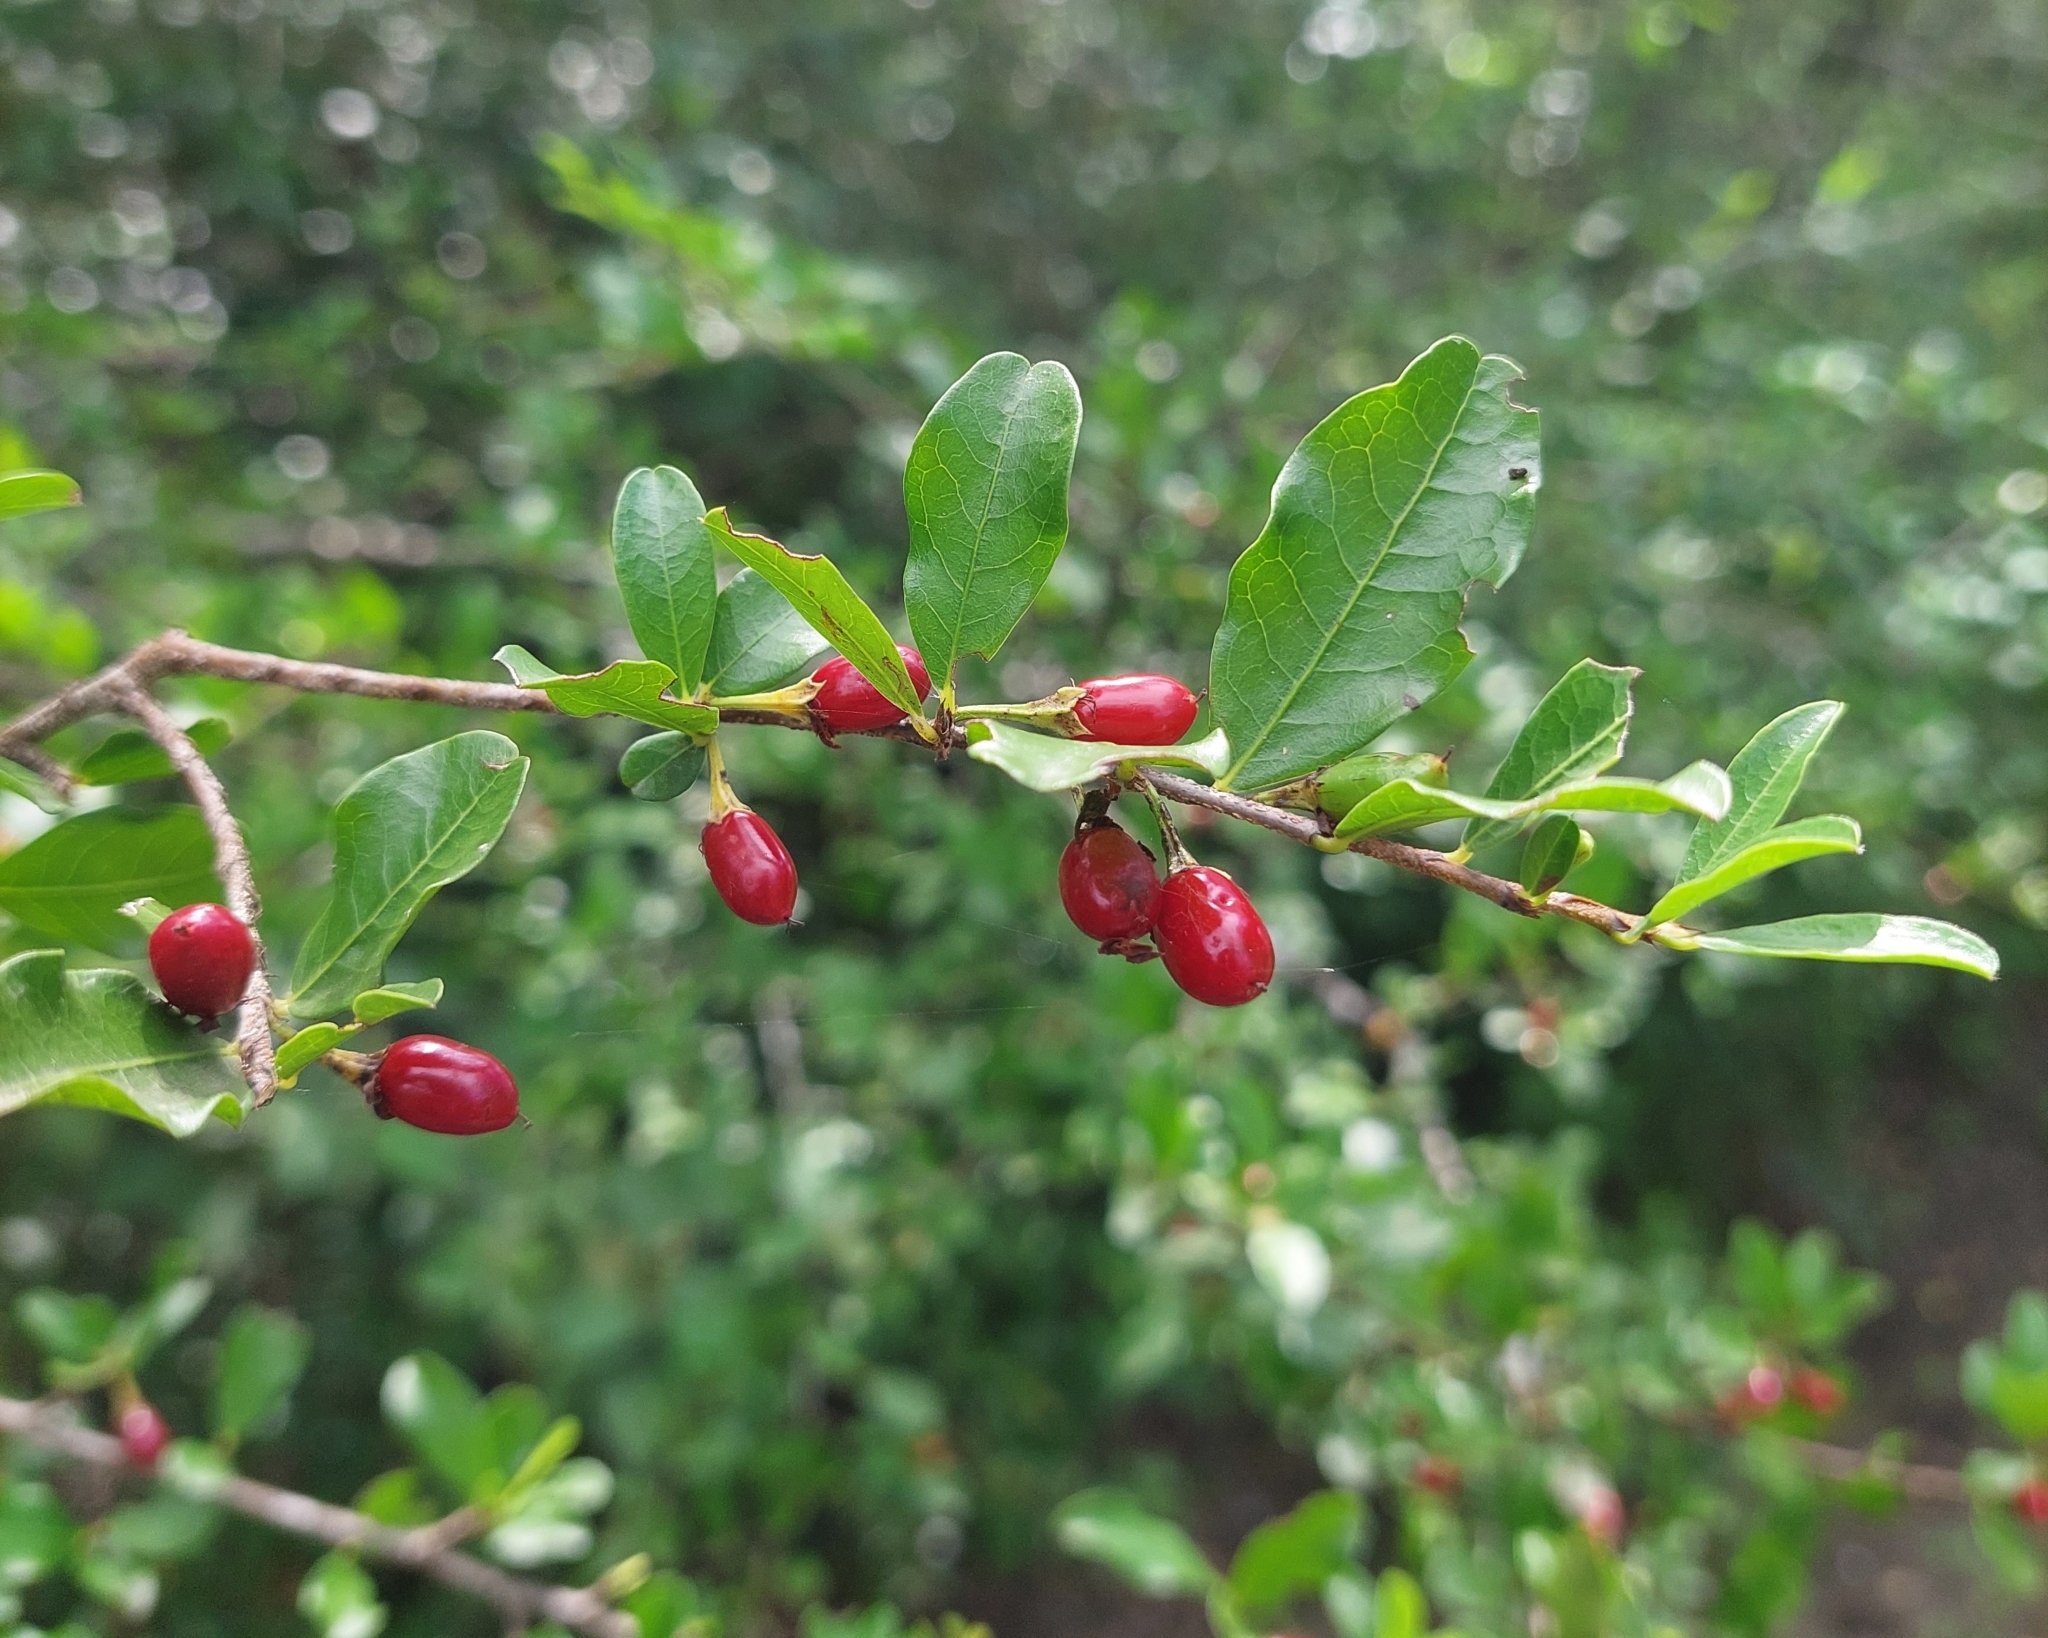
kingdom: Plantae
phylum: Tracheophyta
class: Magnoliopsida
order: Malpighiales
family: Erythroxylaceae
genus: Erythroxylum
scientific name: Erythroxylum argentinum
